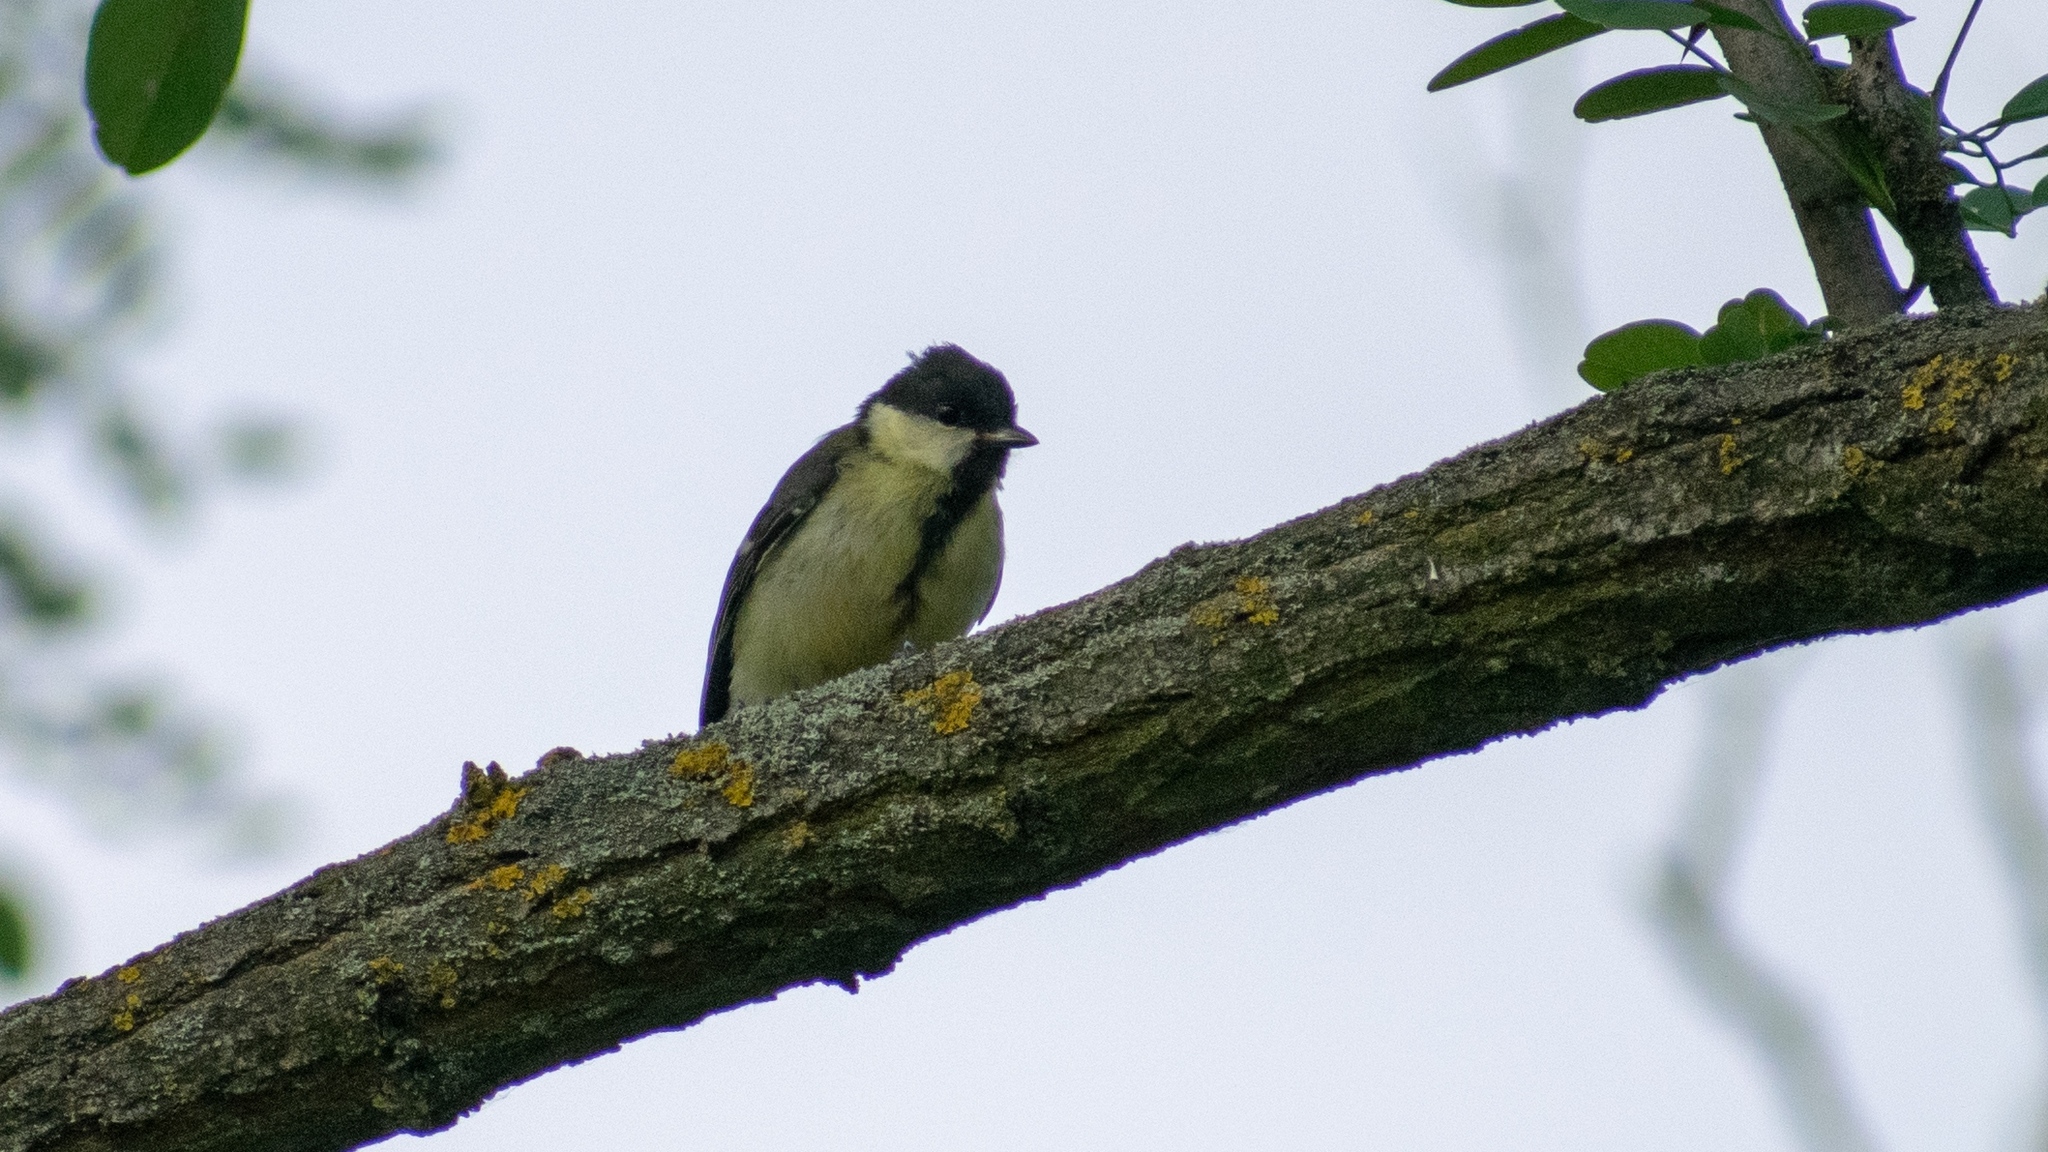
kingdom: Animalia
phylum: Chordata
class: Aves
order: Passeriformes
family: Paridae
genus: Parus
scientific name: Parus major
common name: Great tit
